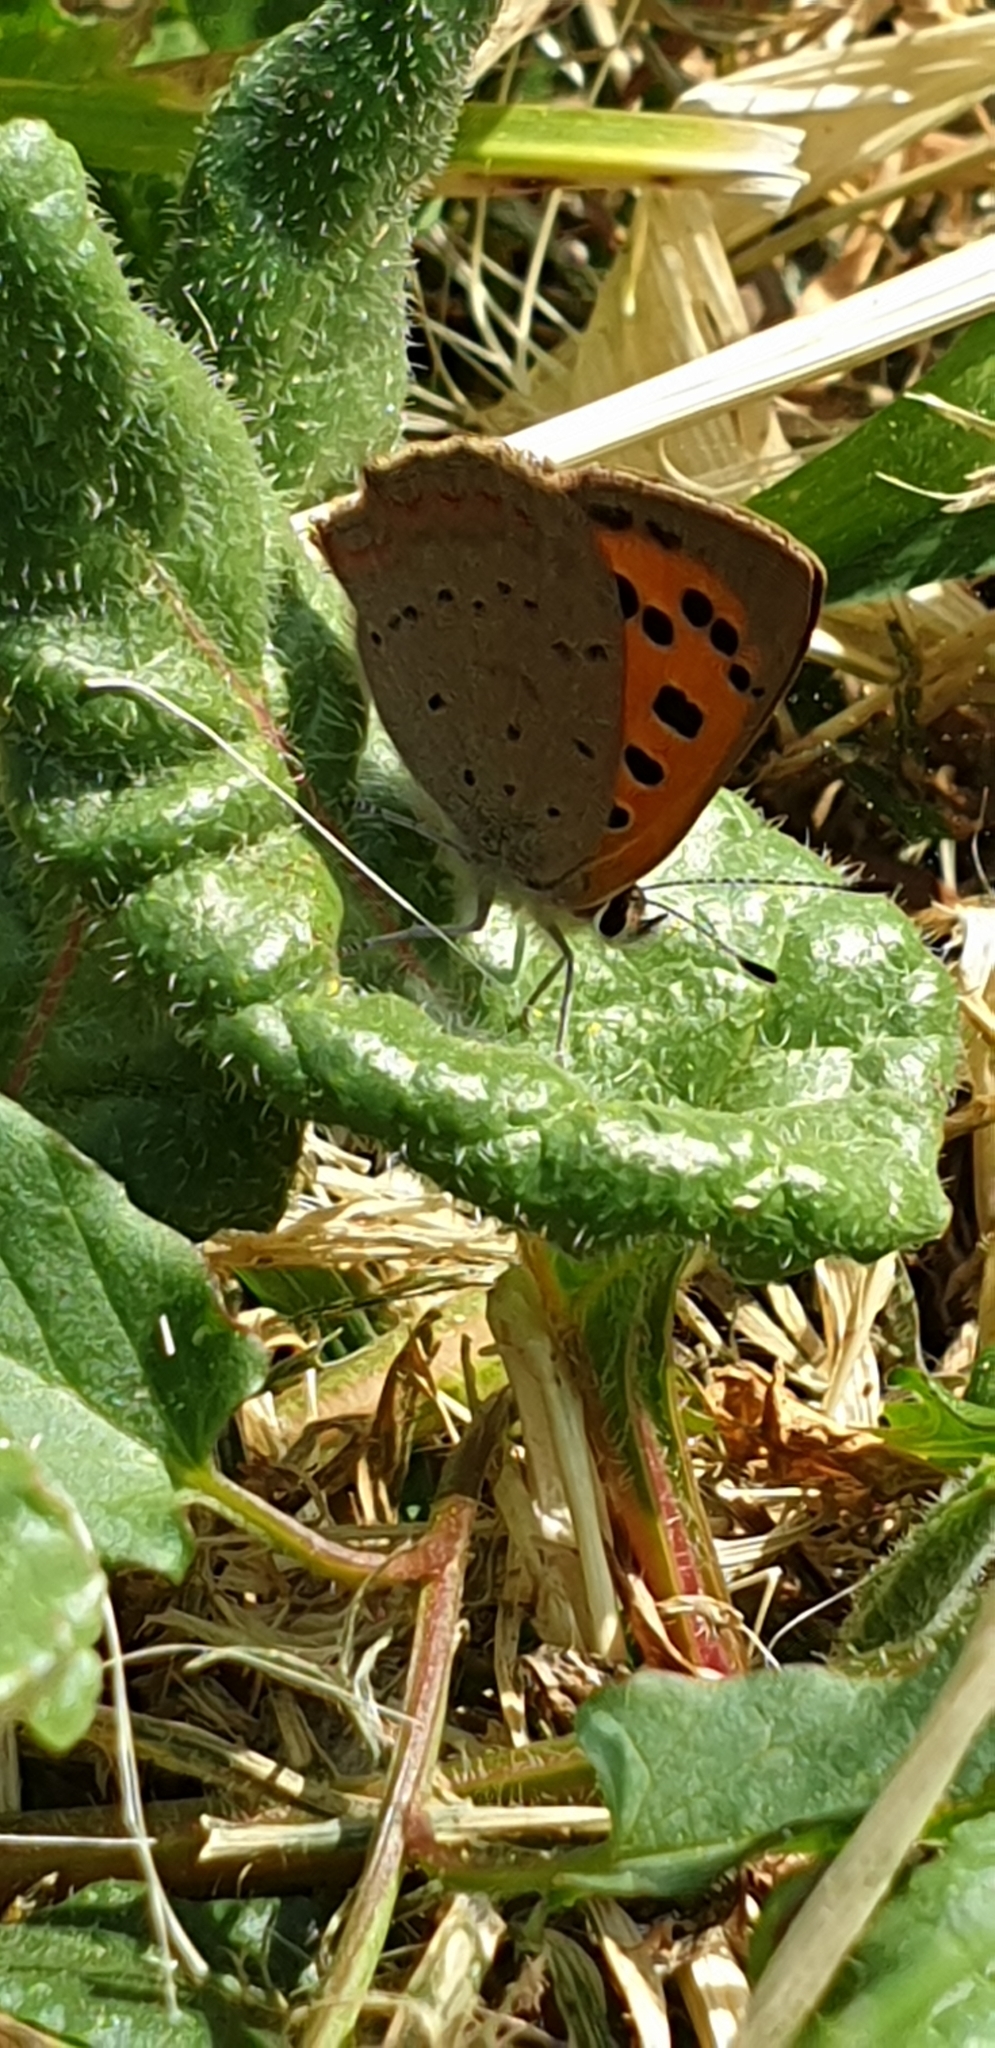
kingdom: Animalia
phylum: Arthropoda
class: Insecta
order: Lepidoptera
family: Lycaenidae
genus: Lycaena
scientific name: Lycaena phlaeas
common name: Small copper
